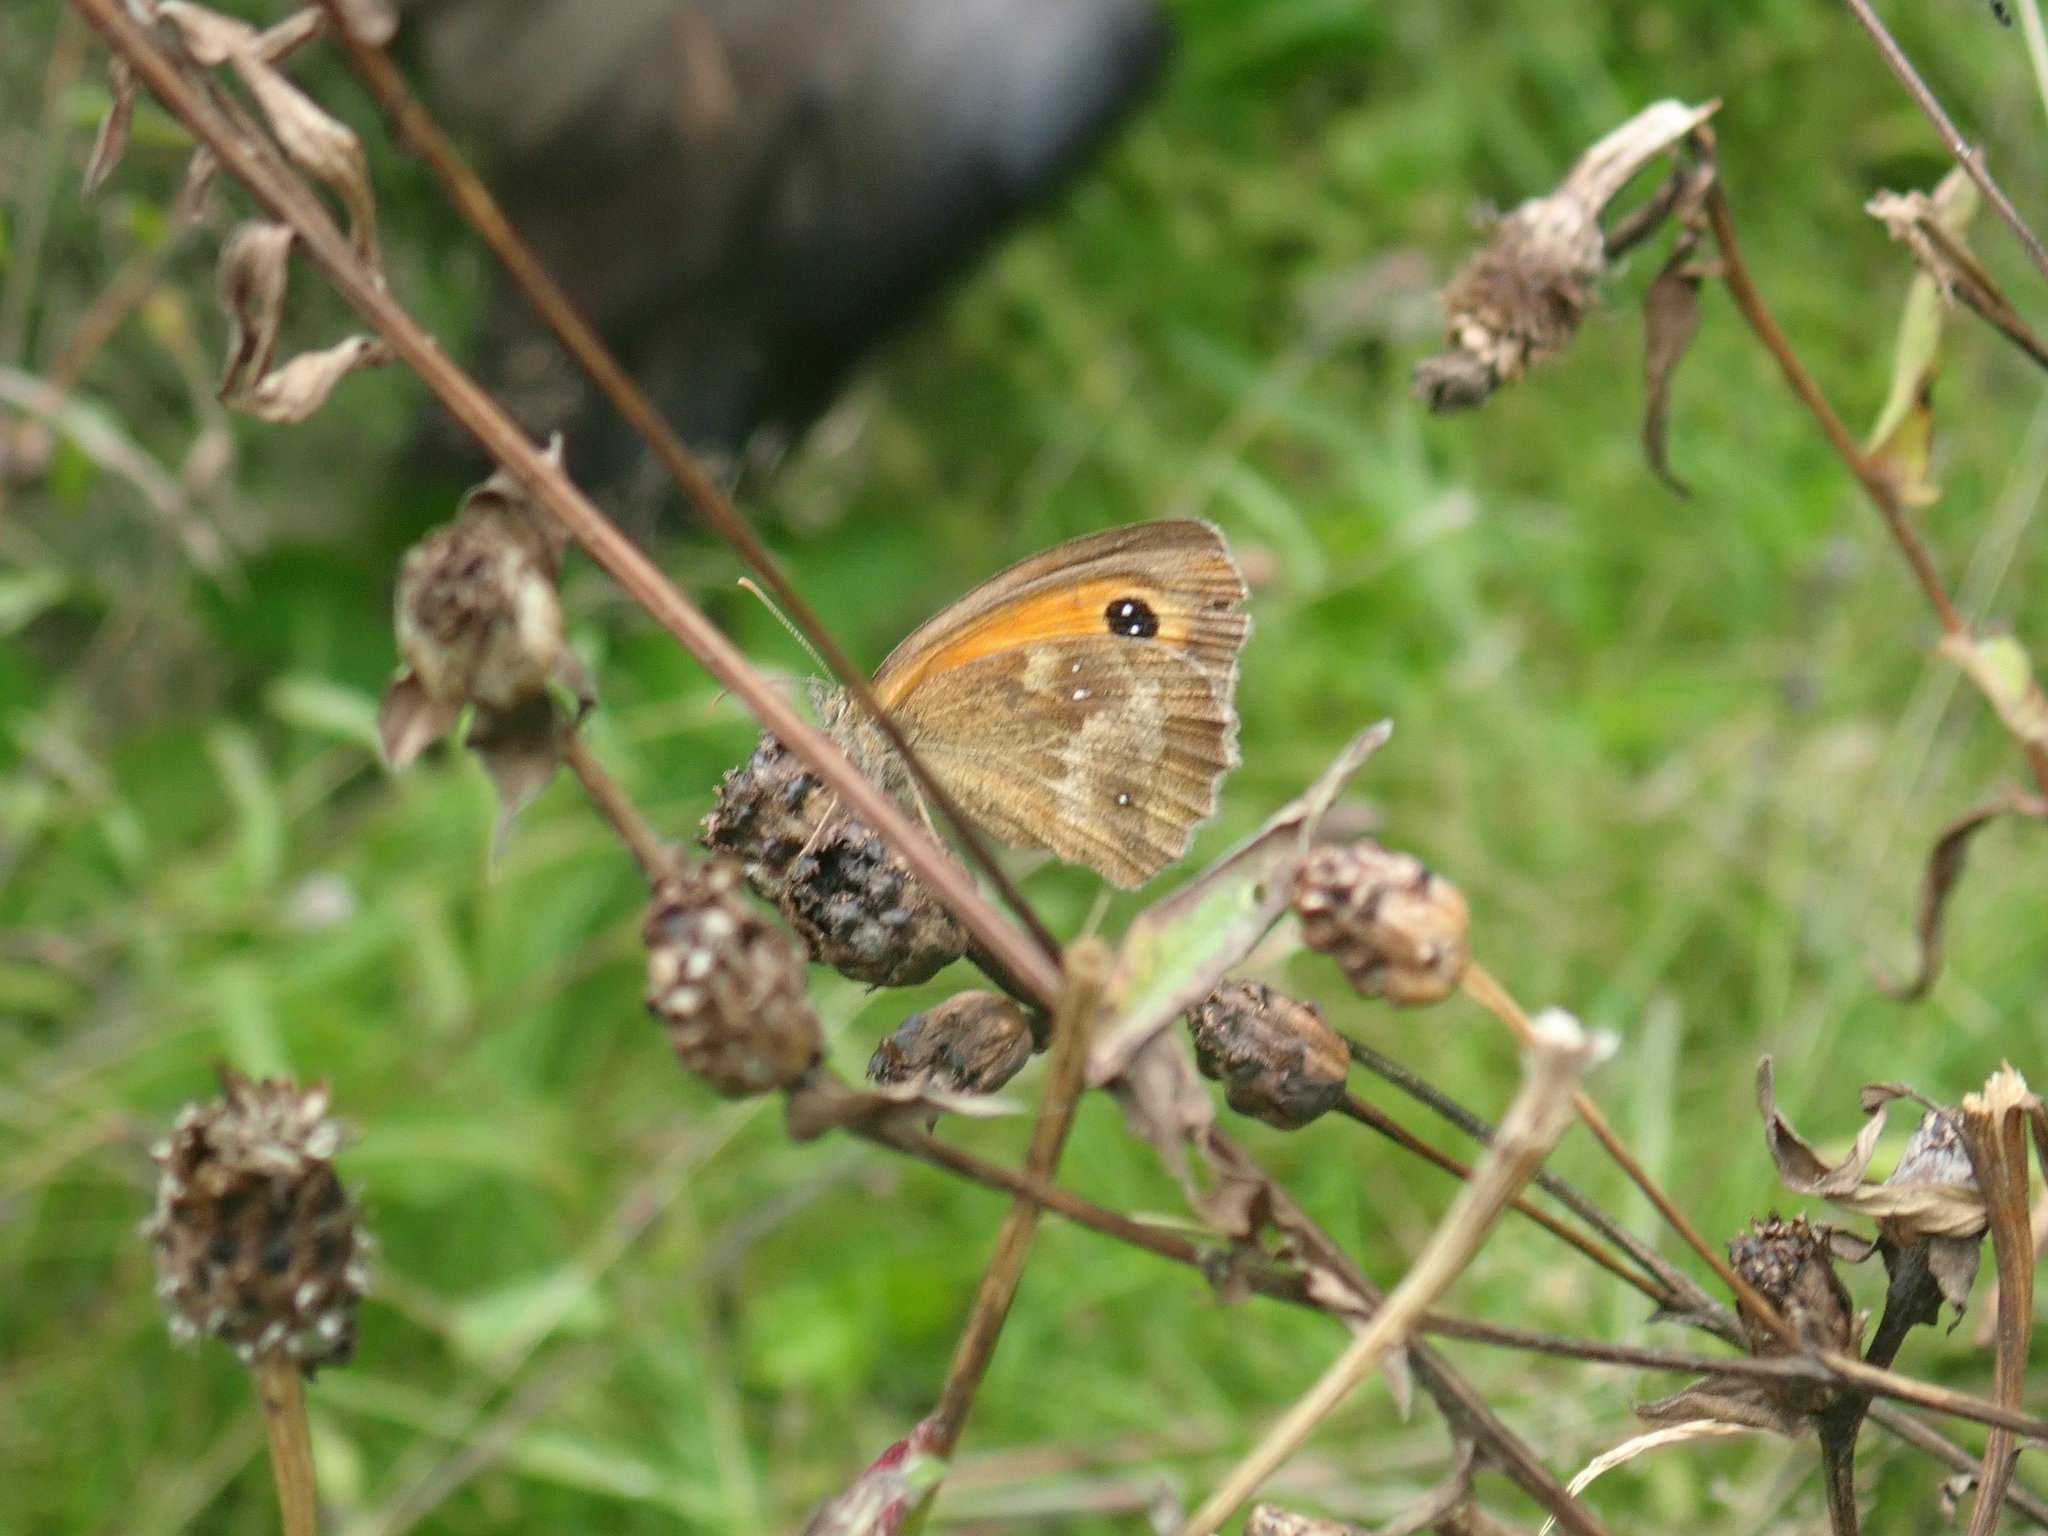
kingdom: Animalia
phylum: Arthropoda
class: Insecta
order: Lepidoptera
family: Nymphalidae
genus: Pyronia
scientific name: Pyronia tithonus
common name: Gatekeeper
